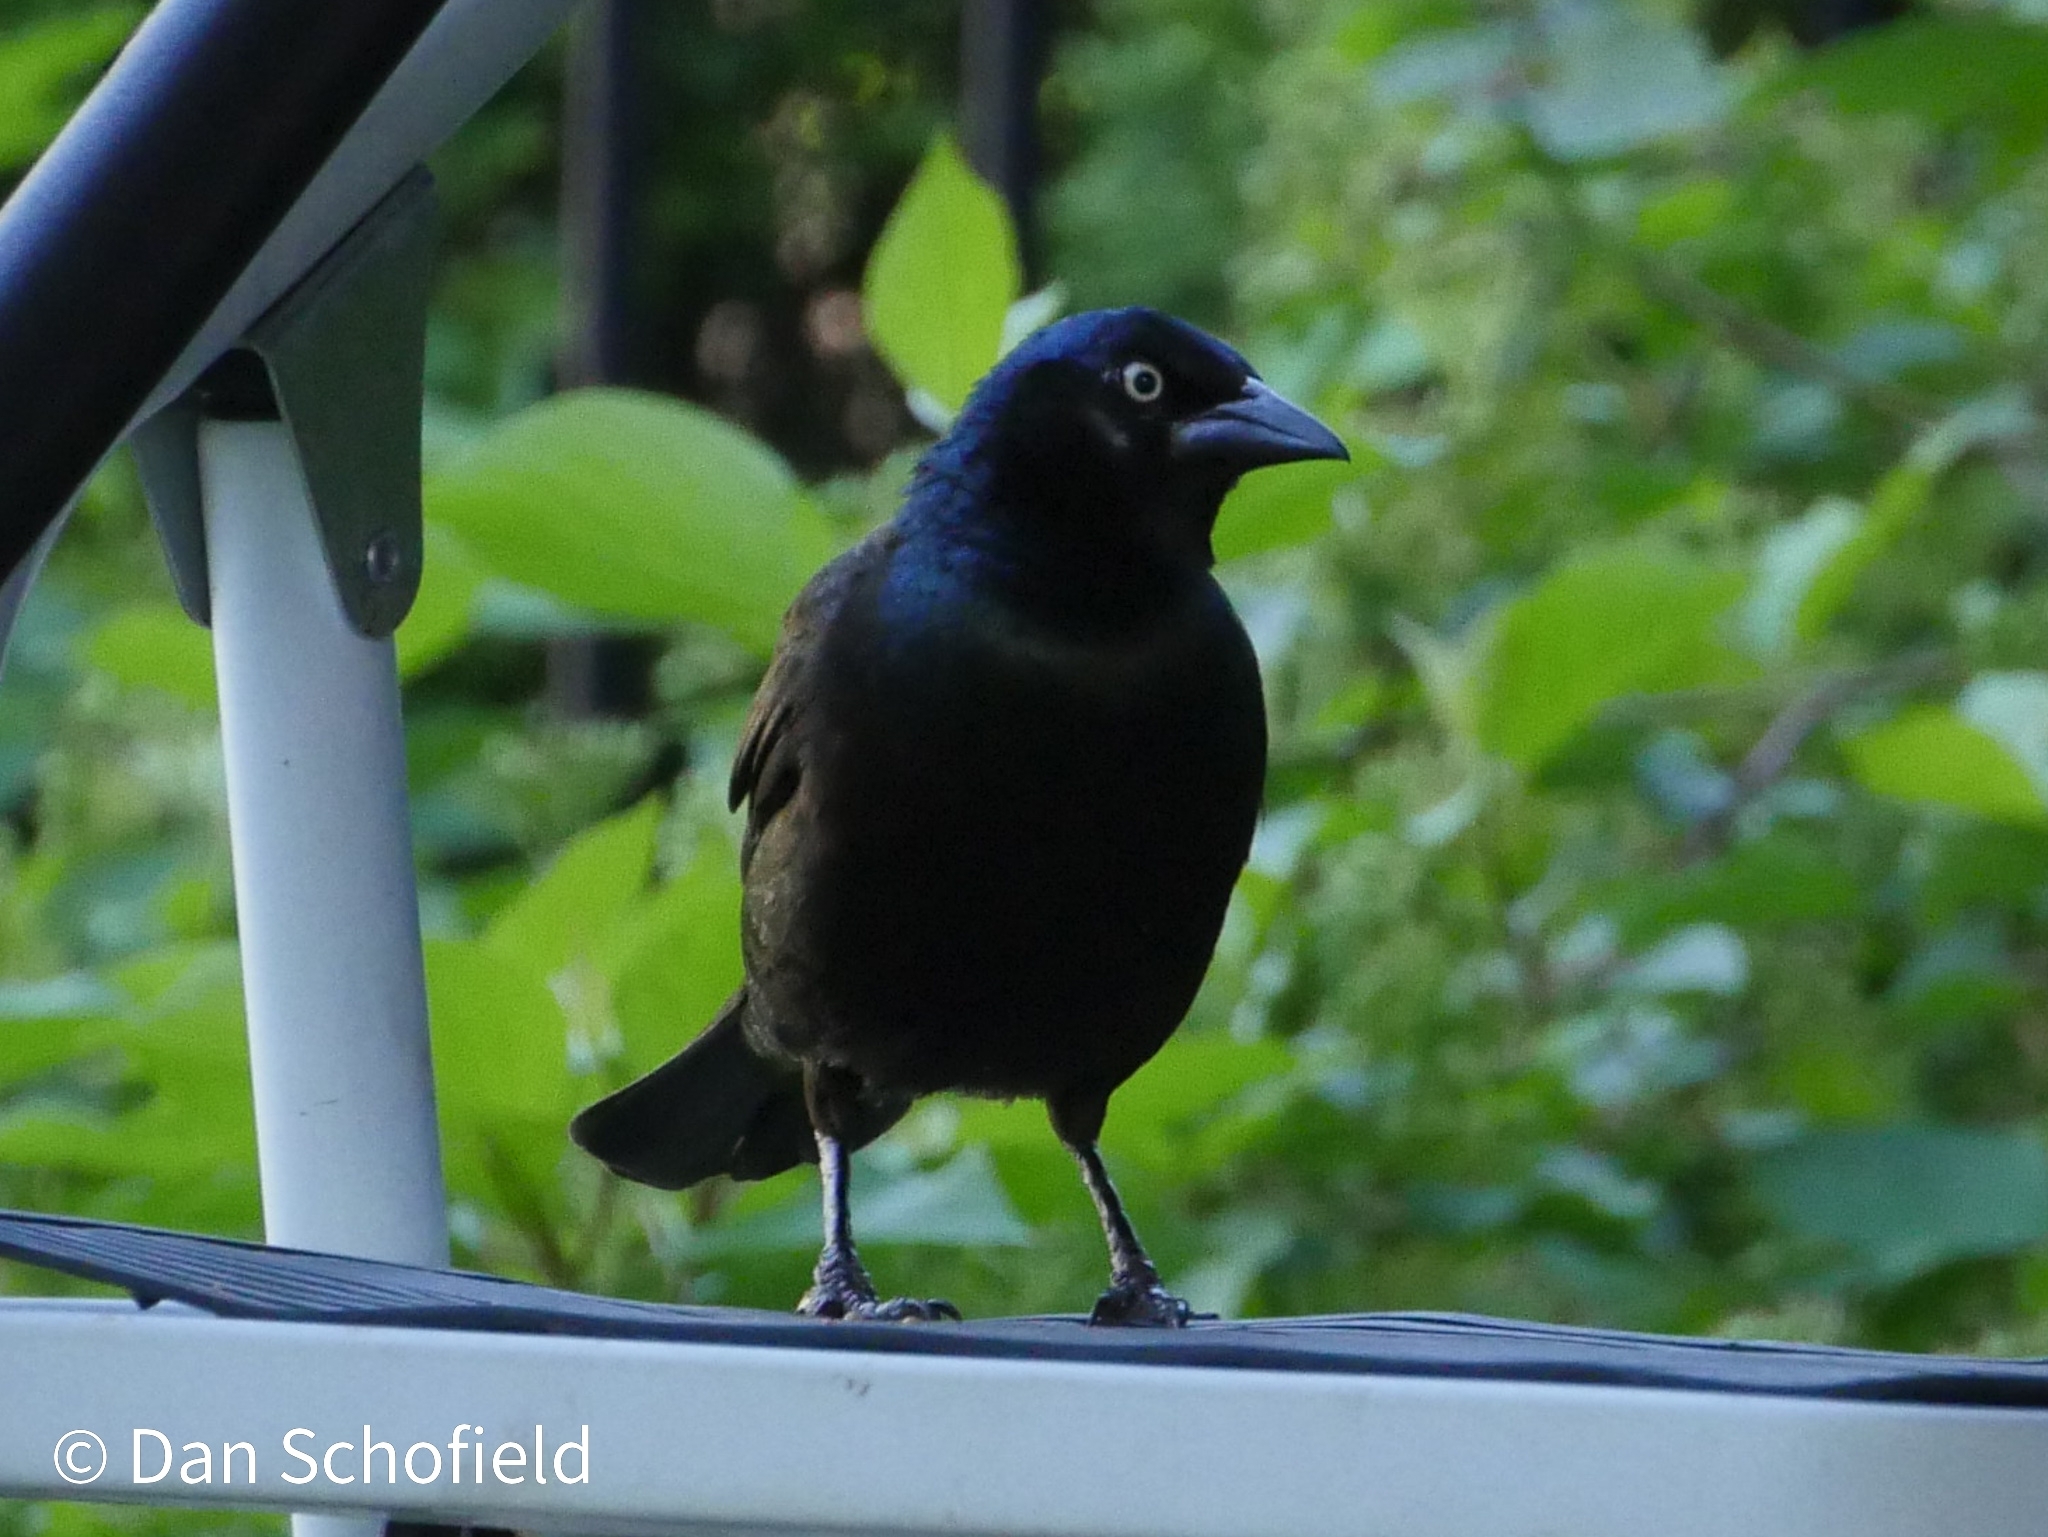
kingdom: Animalia
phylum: Chordata
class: Aves
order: Passeriformes
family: Icteridae
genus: Quiscalus
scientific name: Quiscalus quiscula
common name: Common grackle
